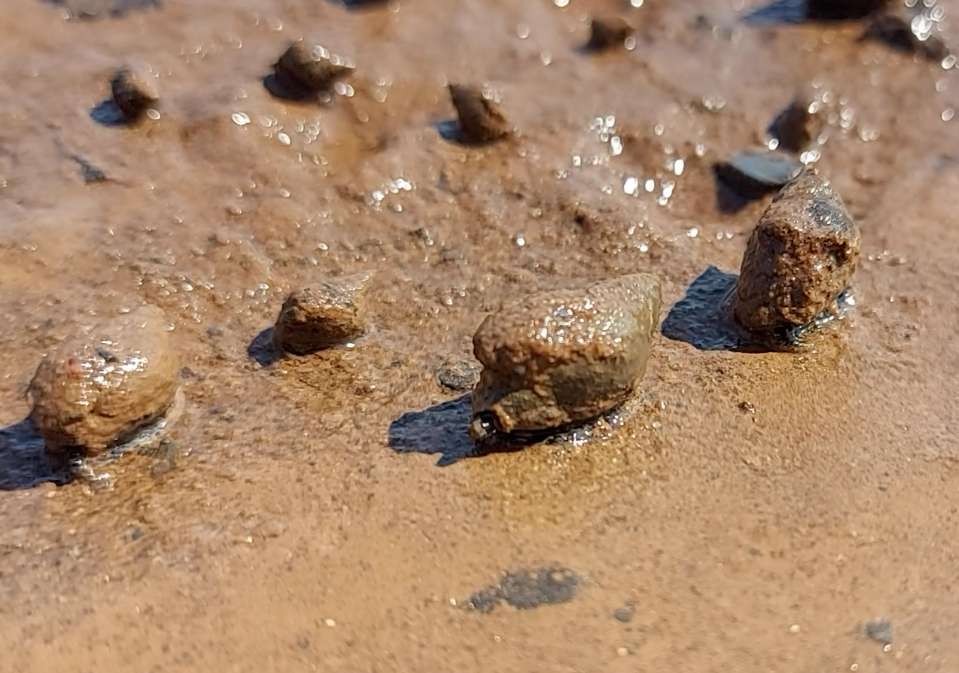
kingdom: Animalia
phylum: Mollusca
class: Gastropoda
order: Neogastropoda
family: Nassariidae
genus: Ilyanassa
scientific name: Ilyanassa obsoleta
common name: Eastern mudsnail
